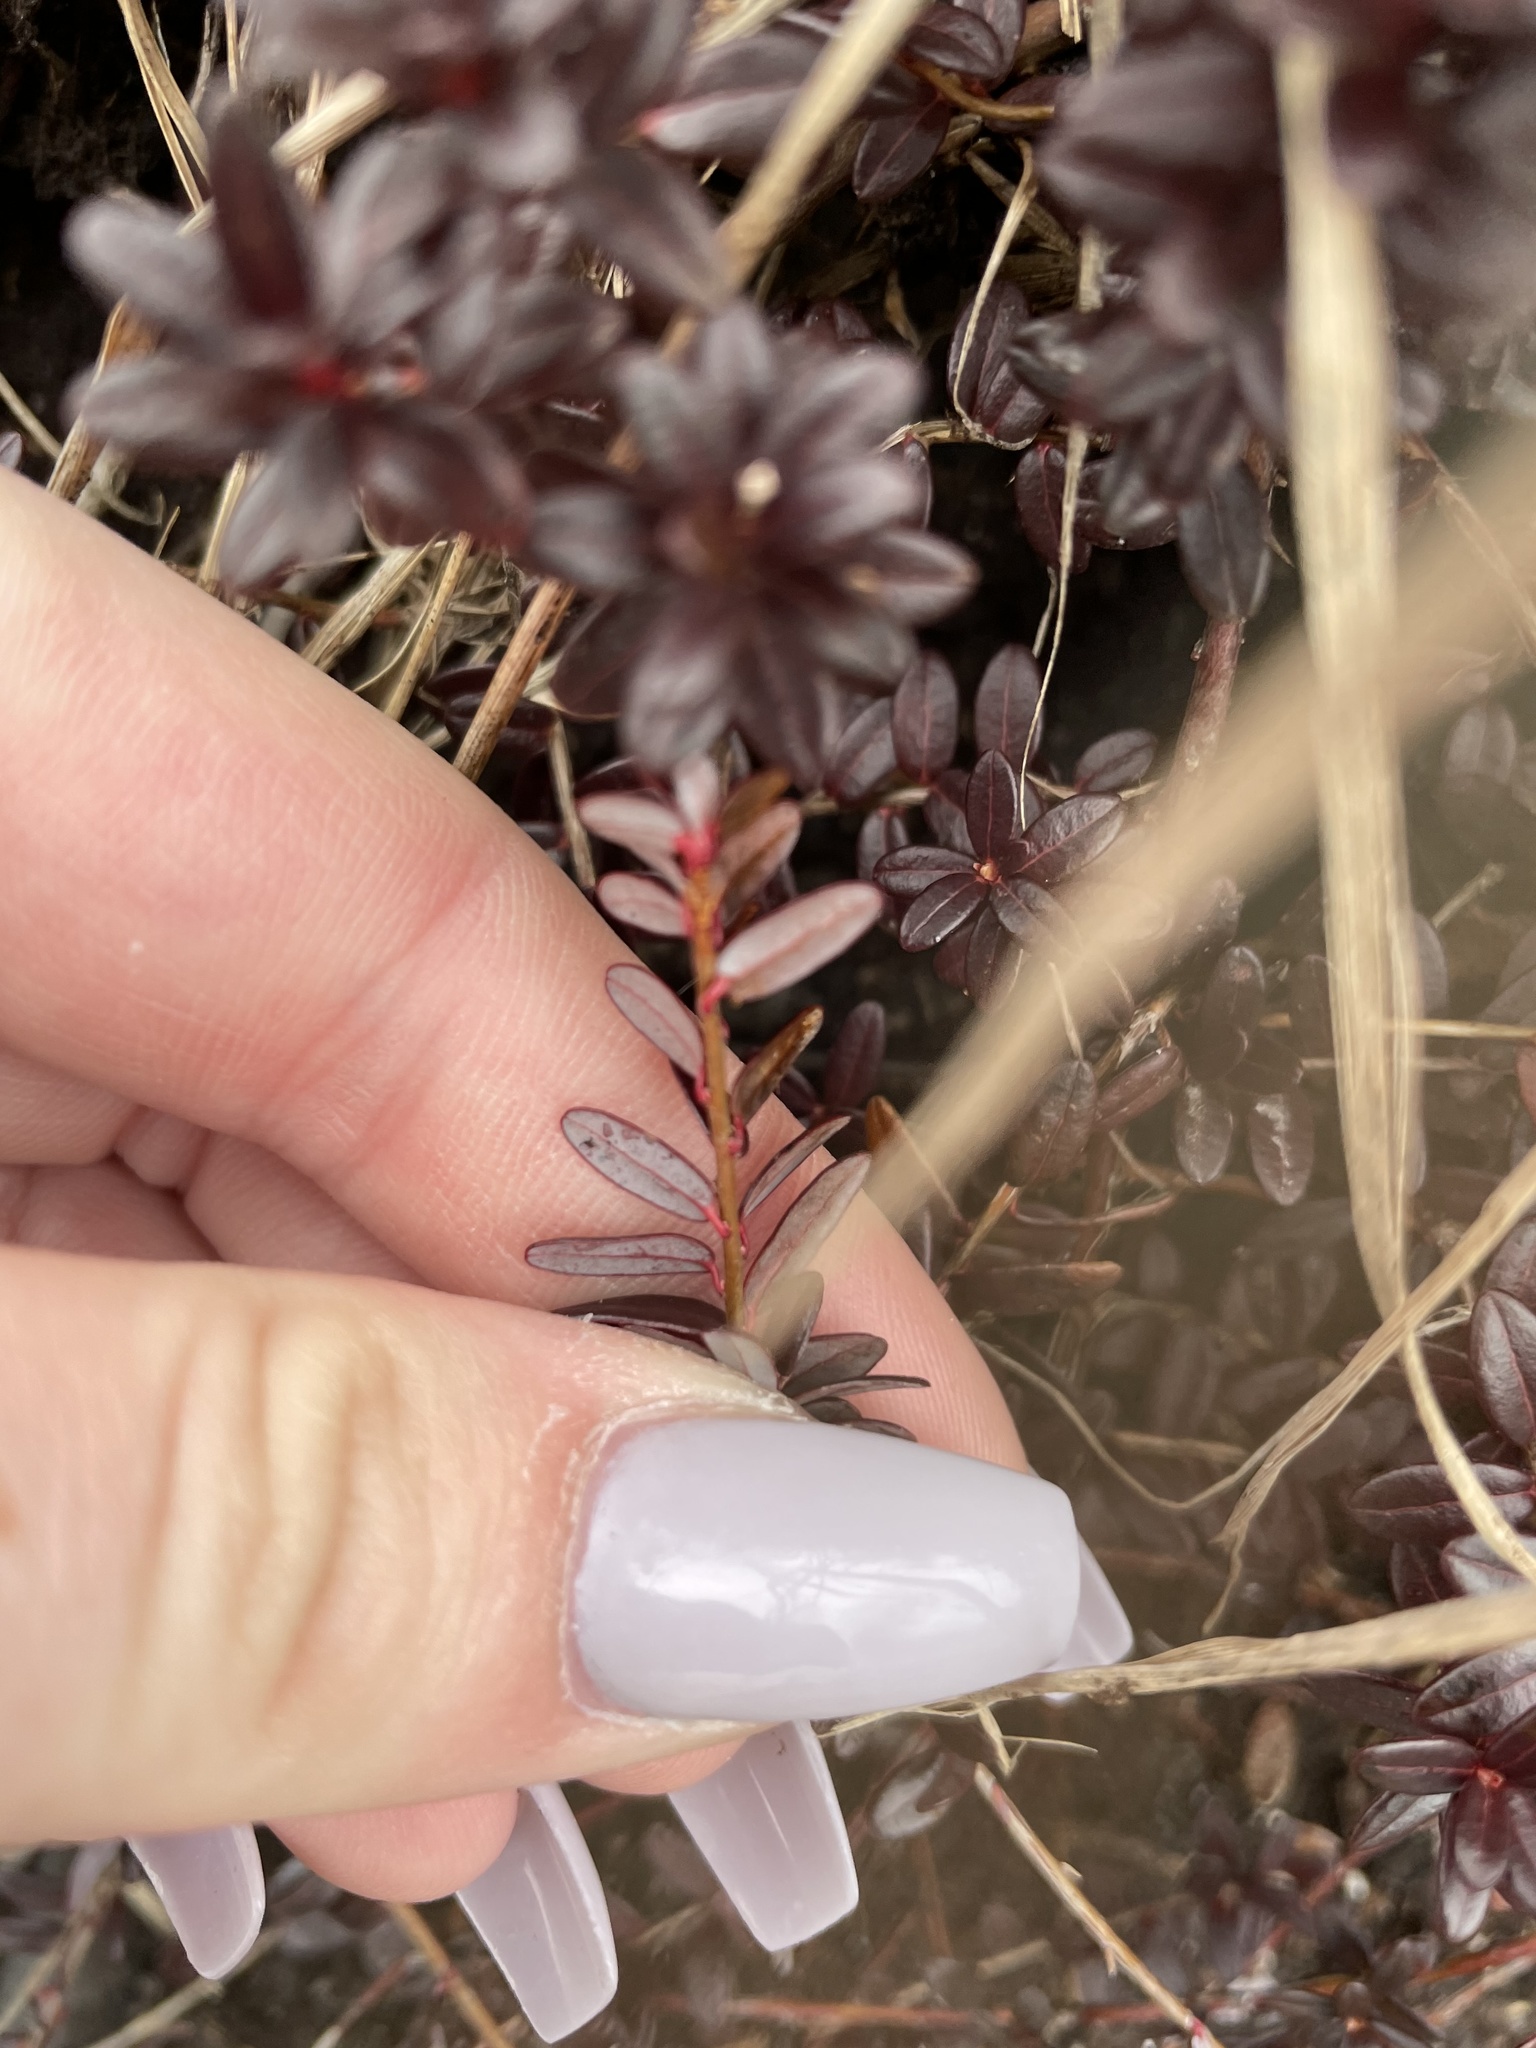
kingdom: Plantae
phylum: Tracheophyta
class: Magnoliopsida
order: Ericales
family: Ericaceae
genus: Vaccinium
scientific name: Vaccinium macrocarpon
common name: American cranberry
